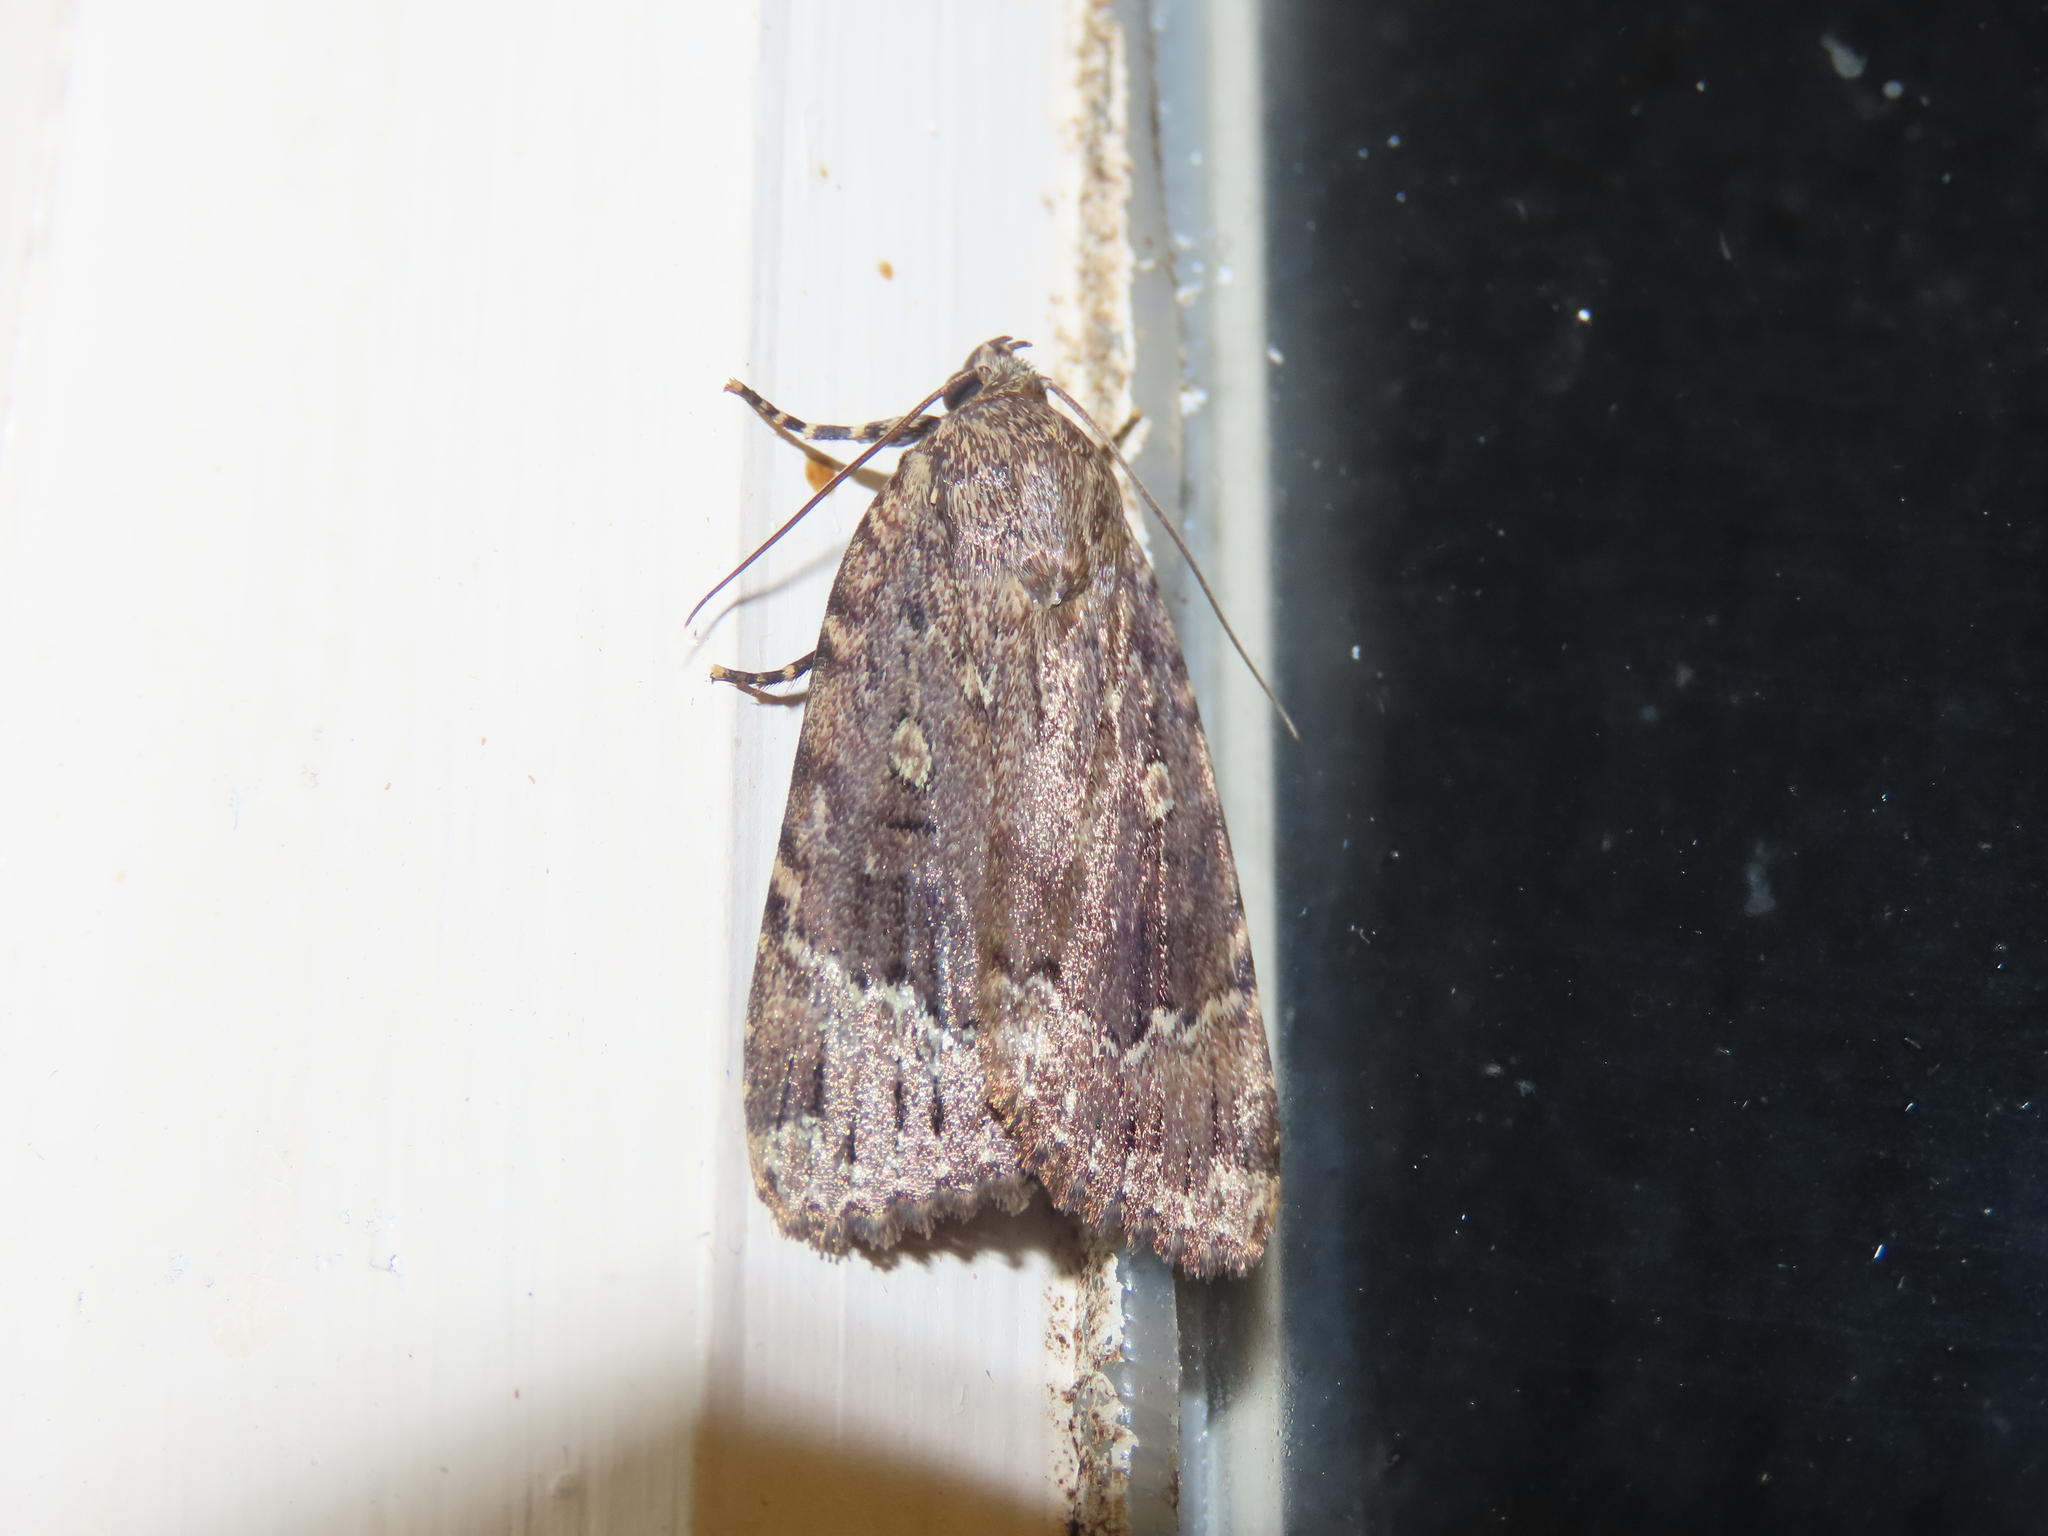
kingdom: Animalia
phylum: Arthropoda
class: Insecta
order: Lepidoptera
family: Noctuidae
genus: Amphipyra
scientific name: Amphipyra pyramidoides
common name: American copper underwing
